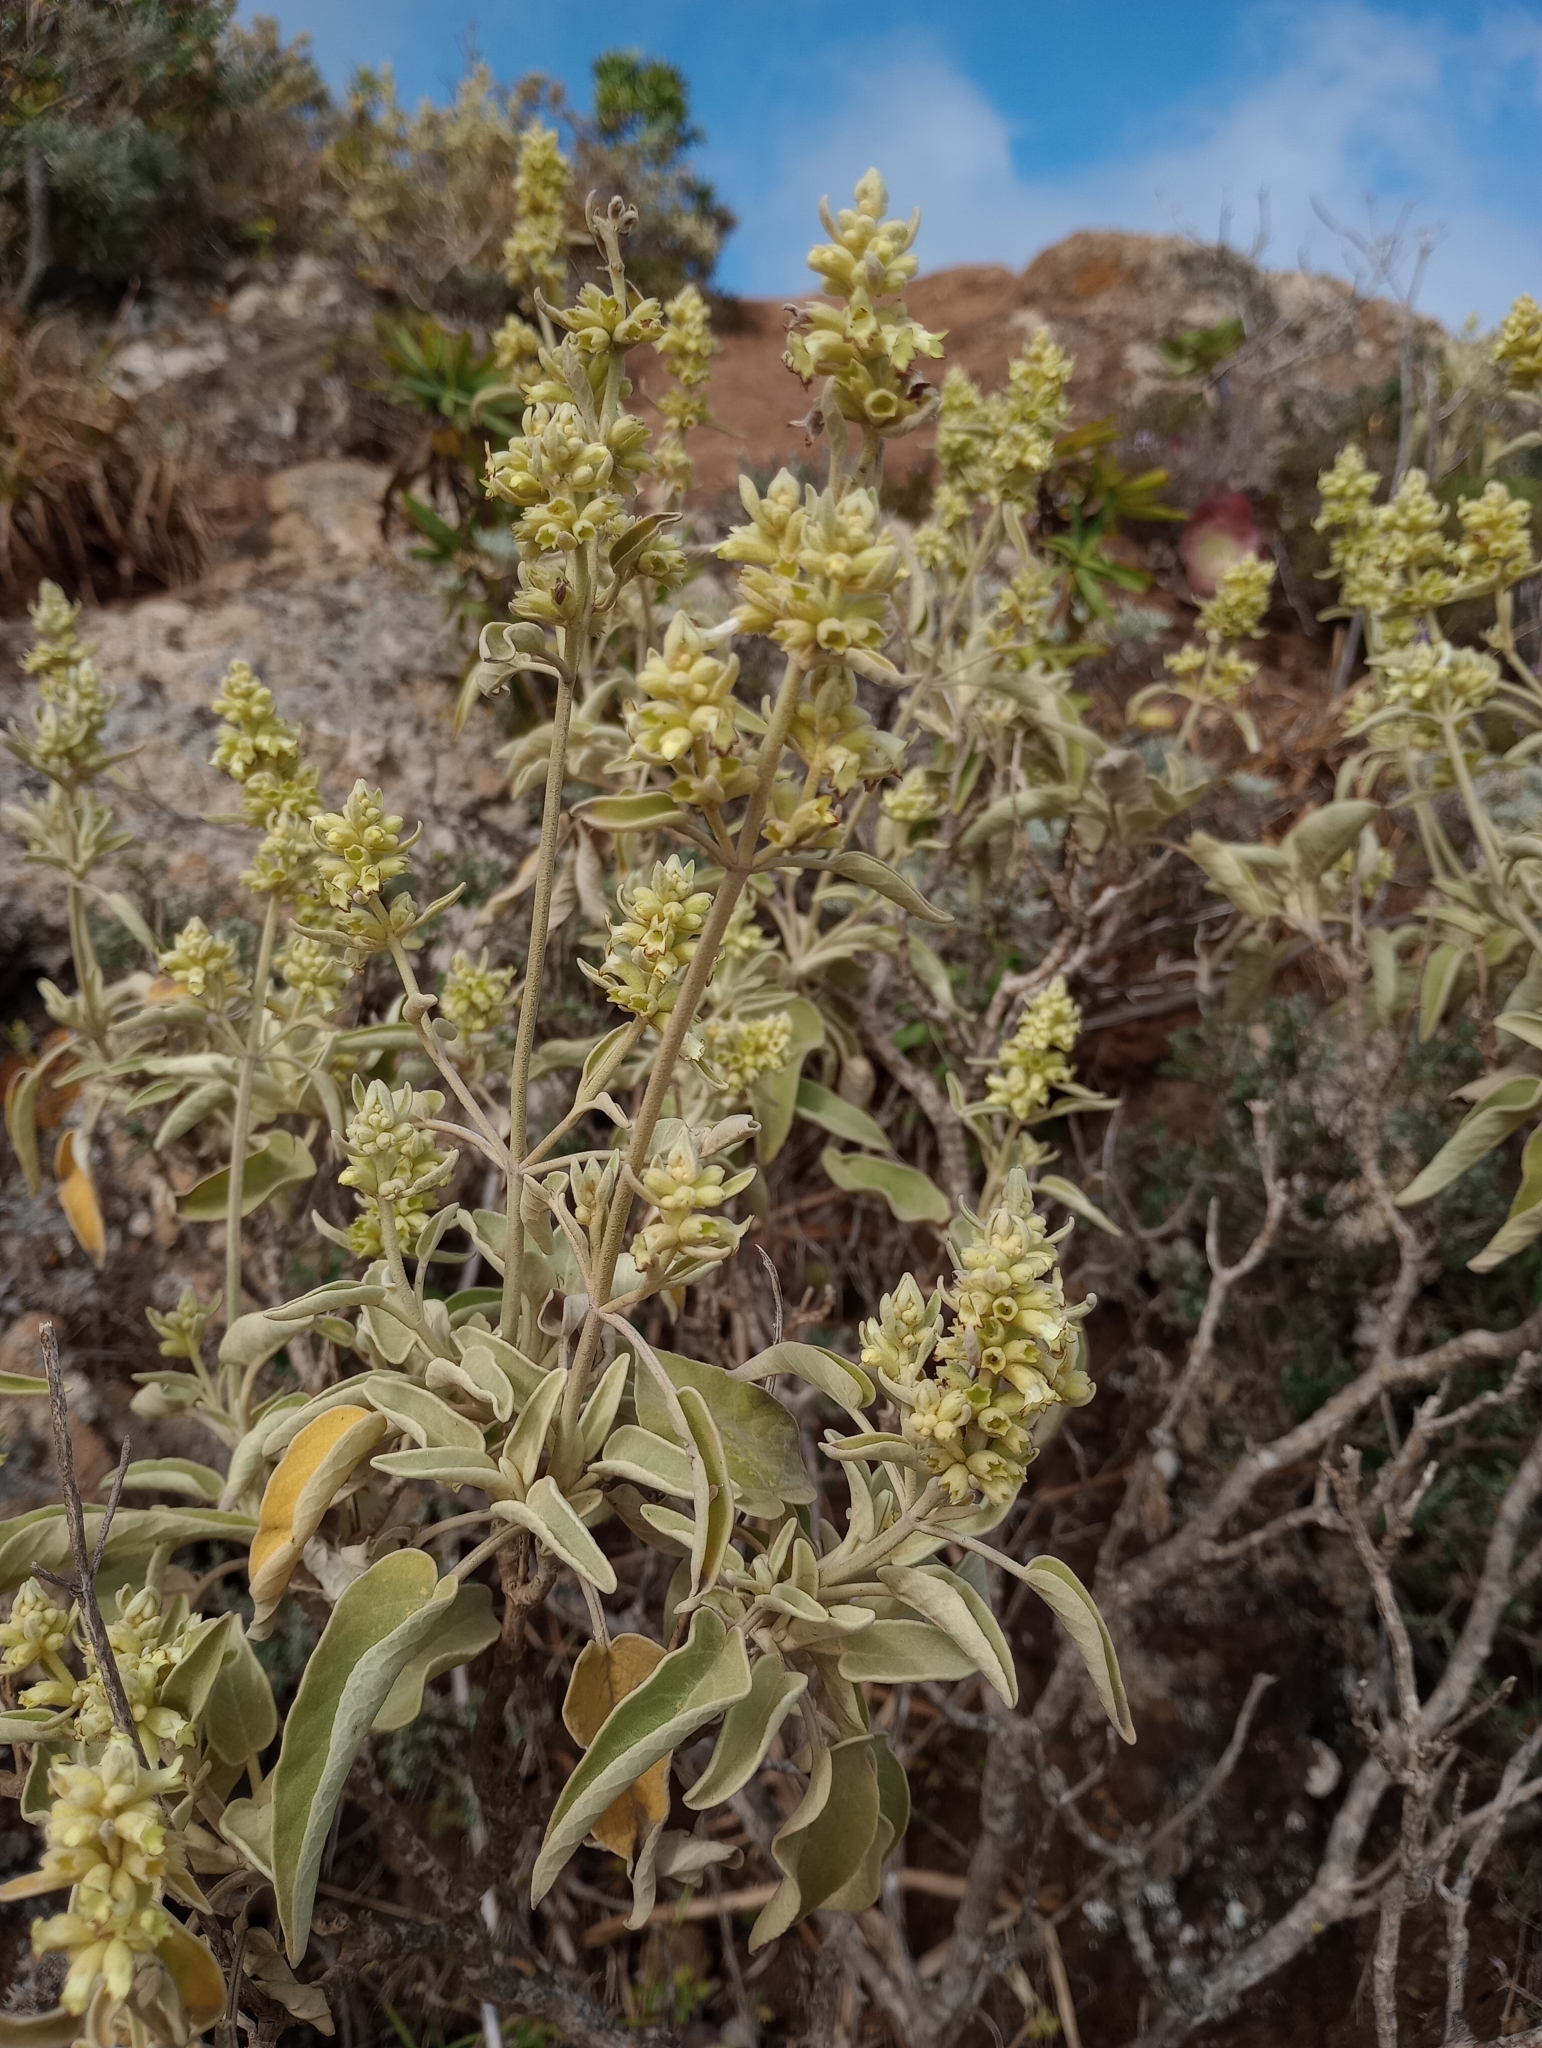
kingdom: Plantae
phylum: Tracheophyta
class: Magnoliopsida
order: Lamiales
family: Lamiaceae
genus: Sideritis
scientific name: Sideritis dendrochahorra
